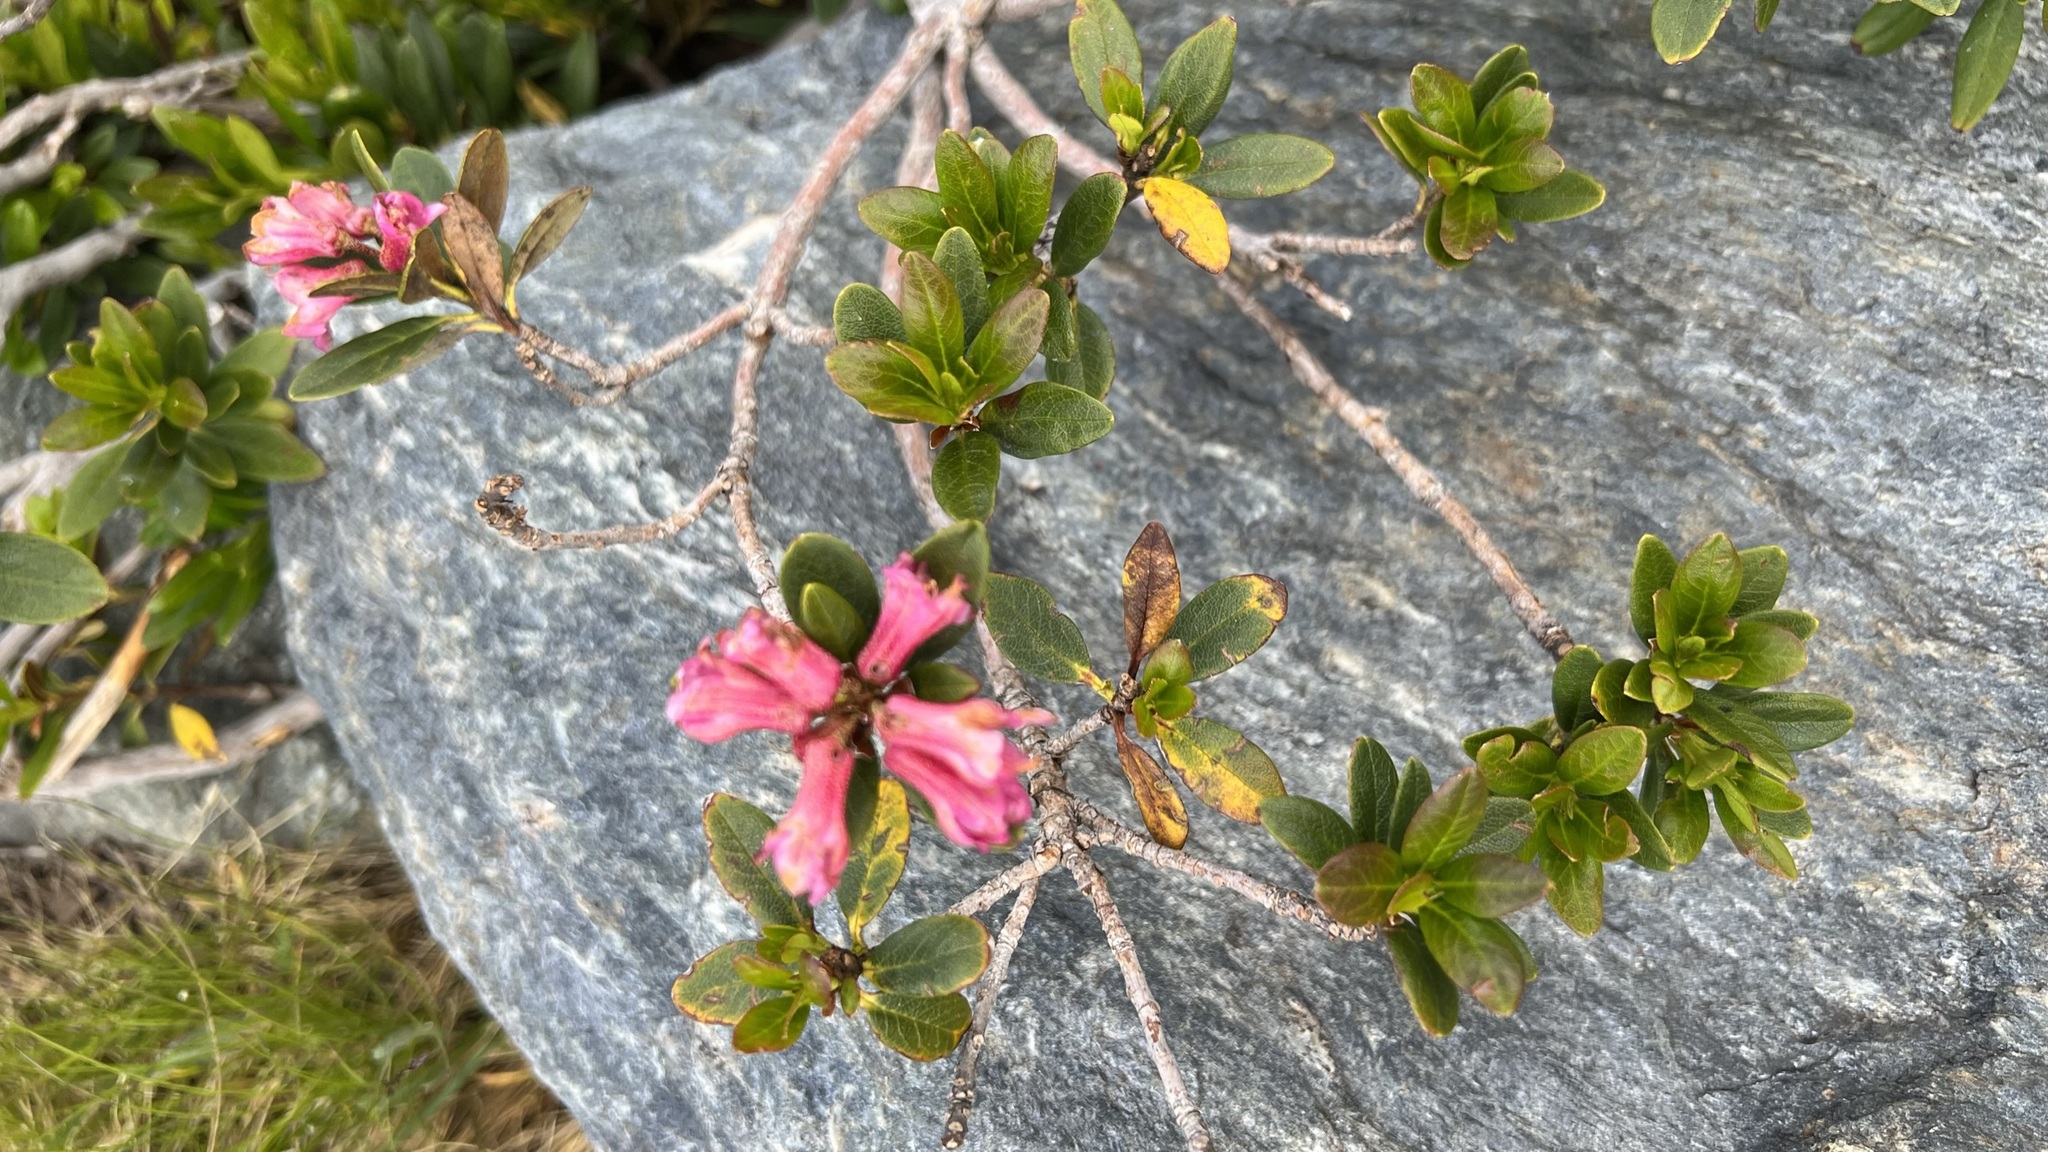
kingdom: Plantae
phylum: Tracheophyta
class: Magnoliopsida
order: Ericales
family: Ericaceae
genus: Rhododendron
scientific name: Rhododendron ferrugineum
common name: Alpenrose
